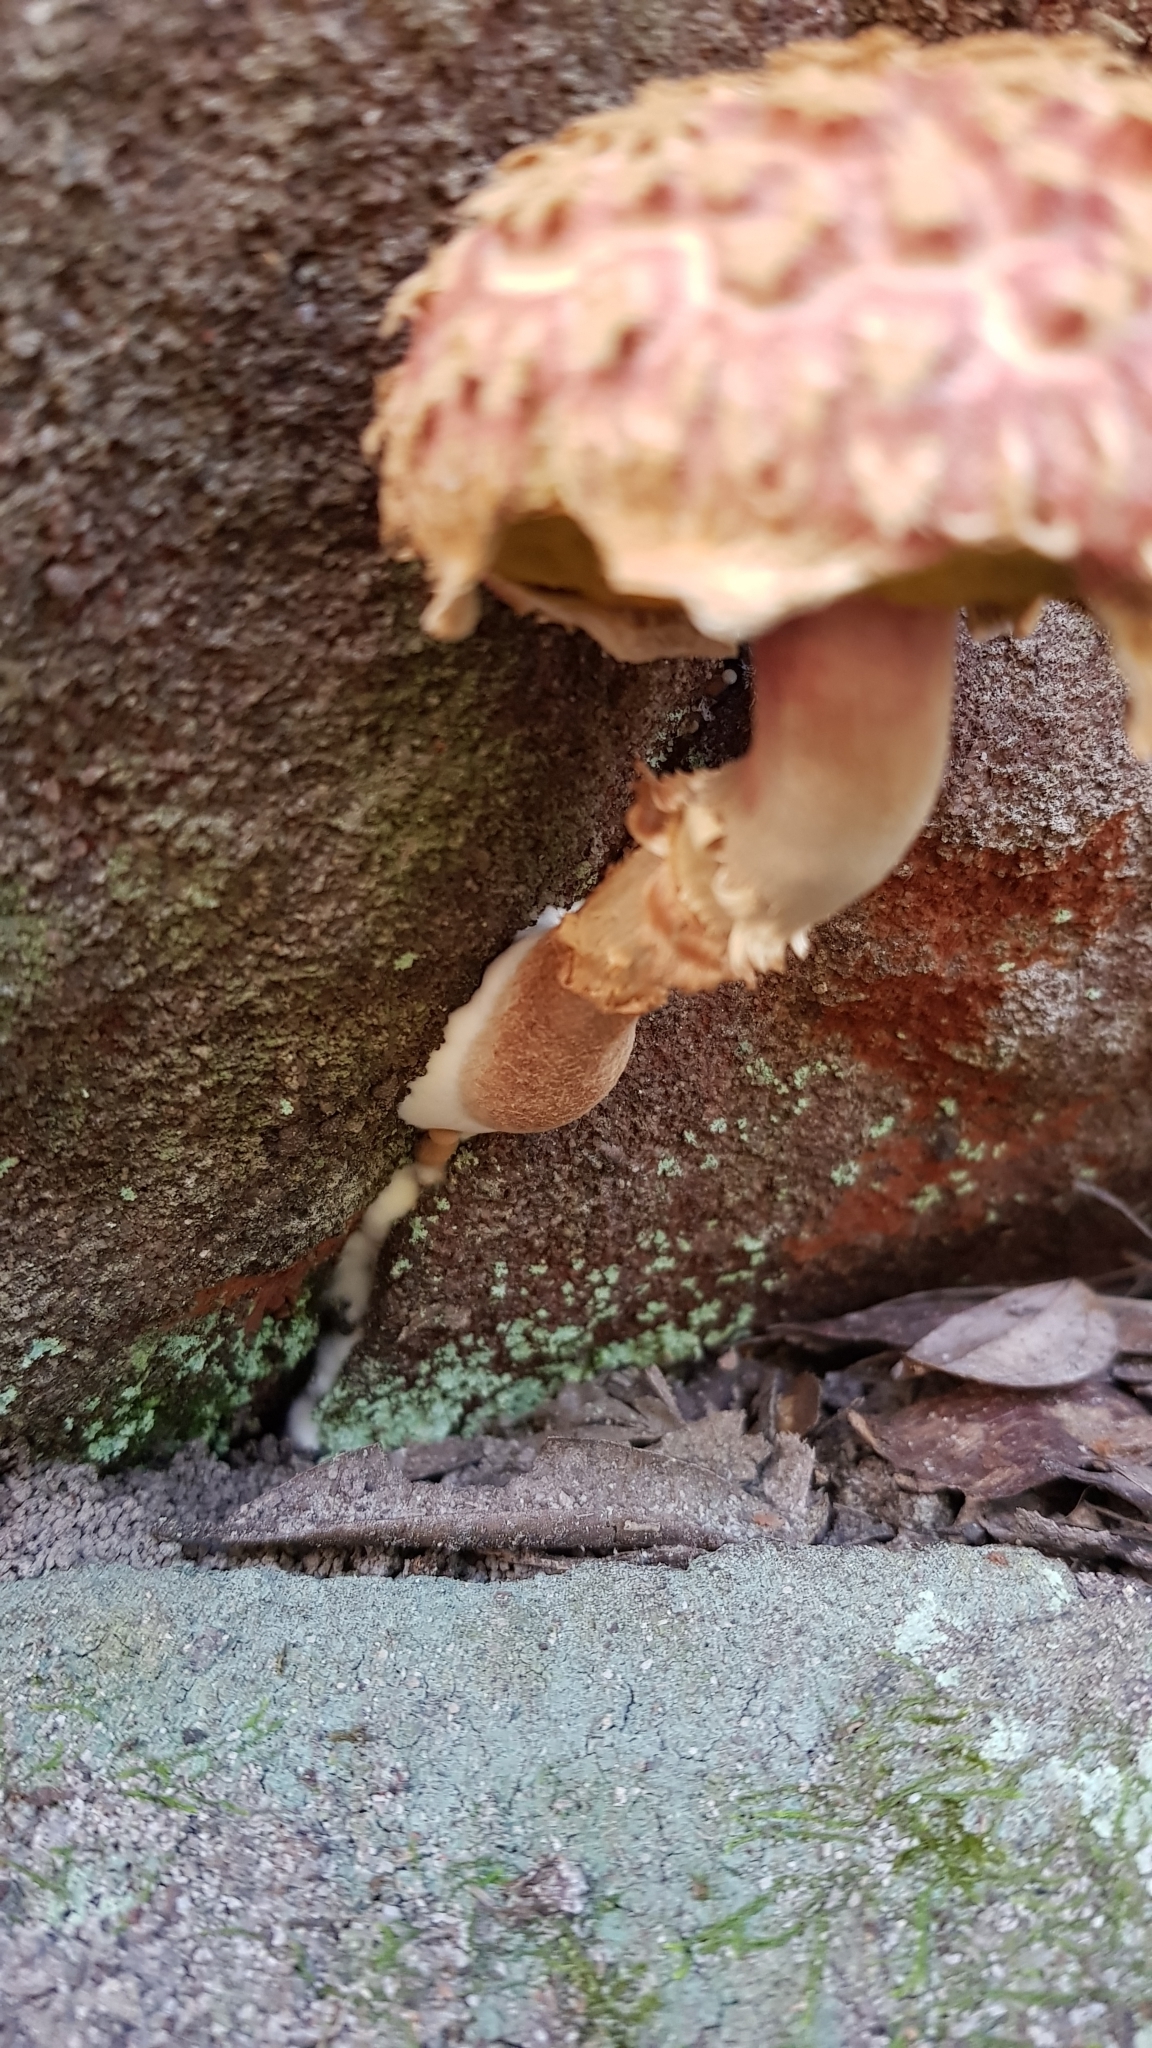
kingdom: Fungi
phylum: Basidiomycota
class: Agaricomycetes
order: Boletales
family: Boletaceae
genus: Strobilomyces
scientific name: Strobilomyces ananiceps
